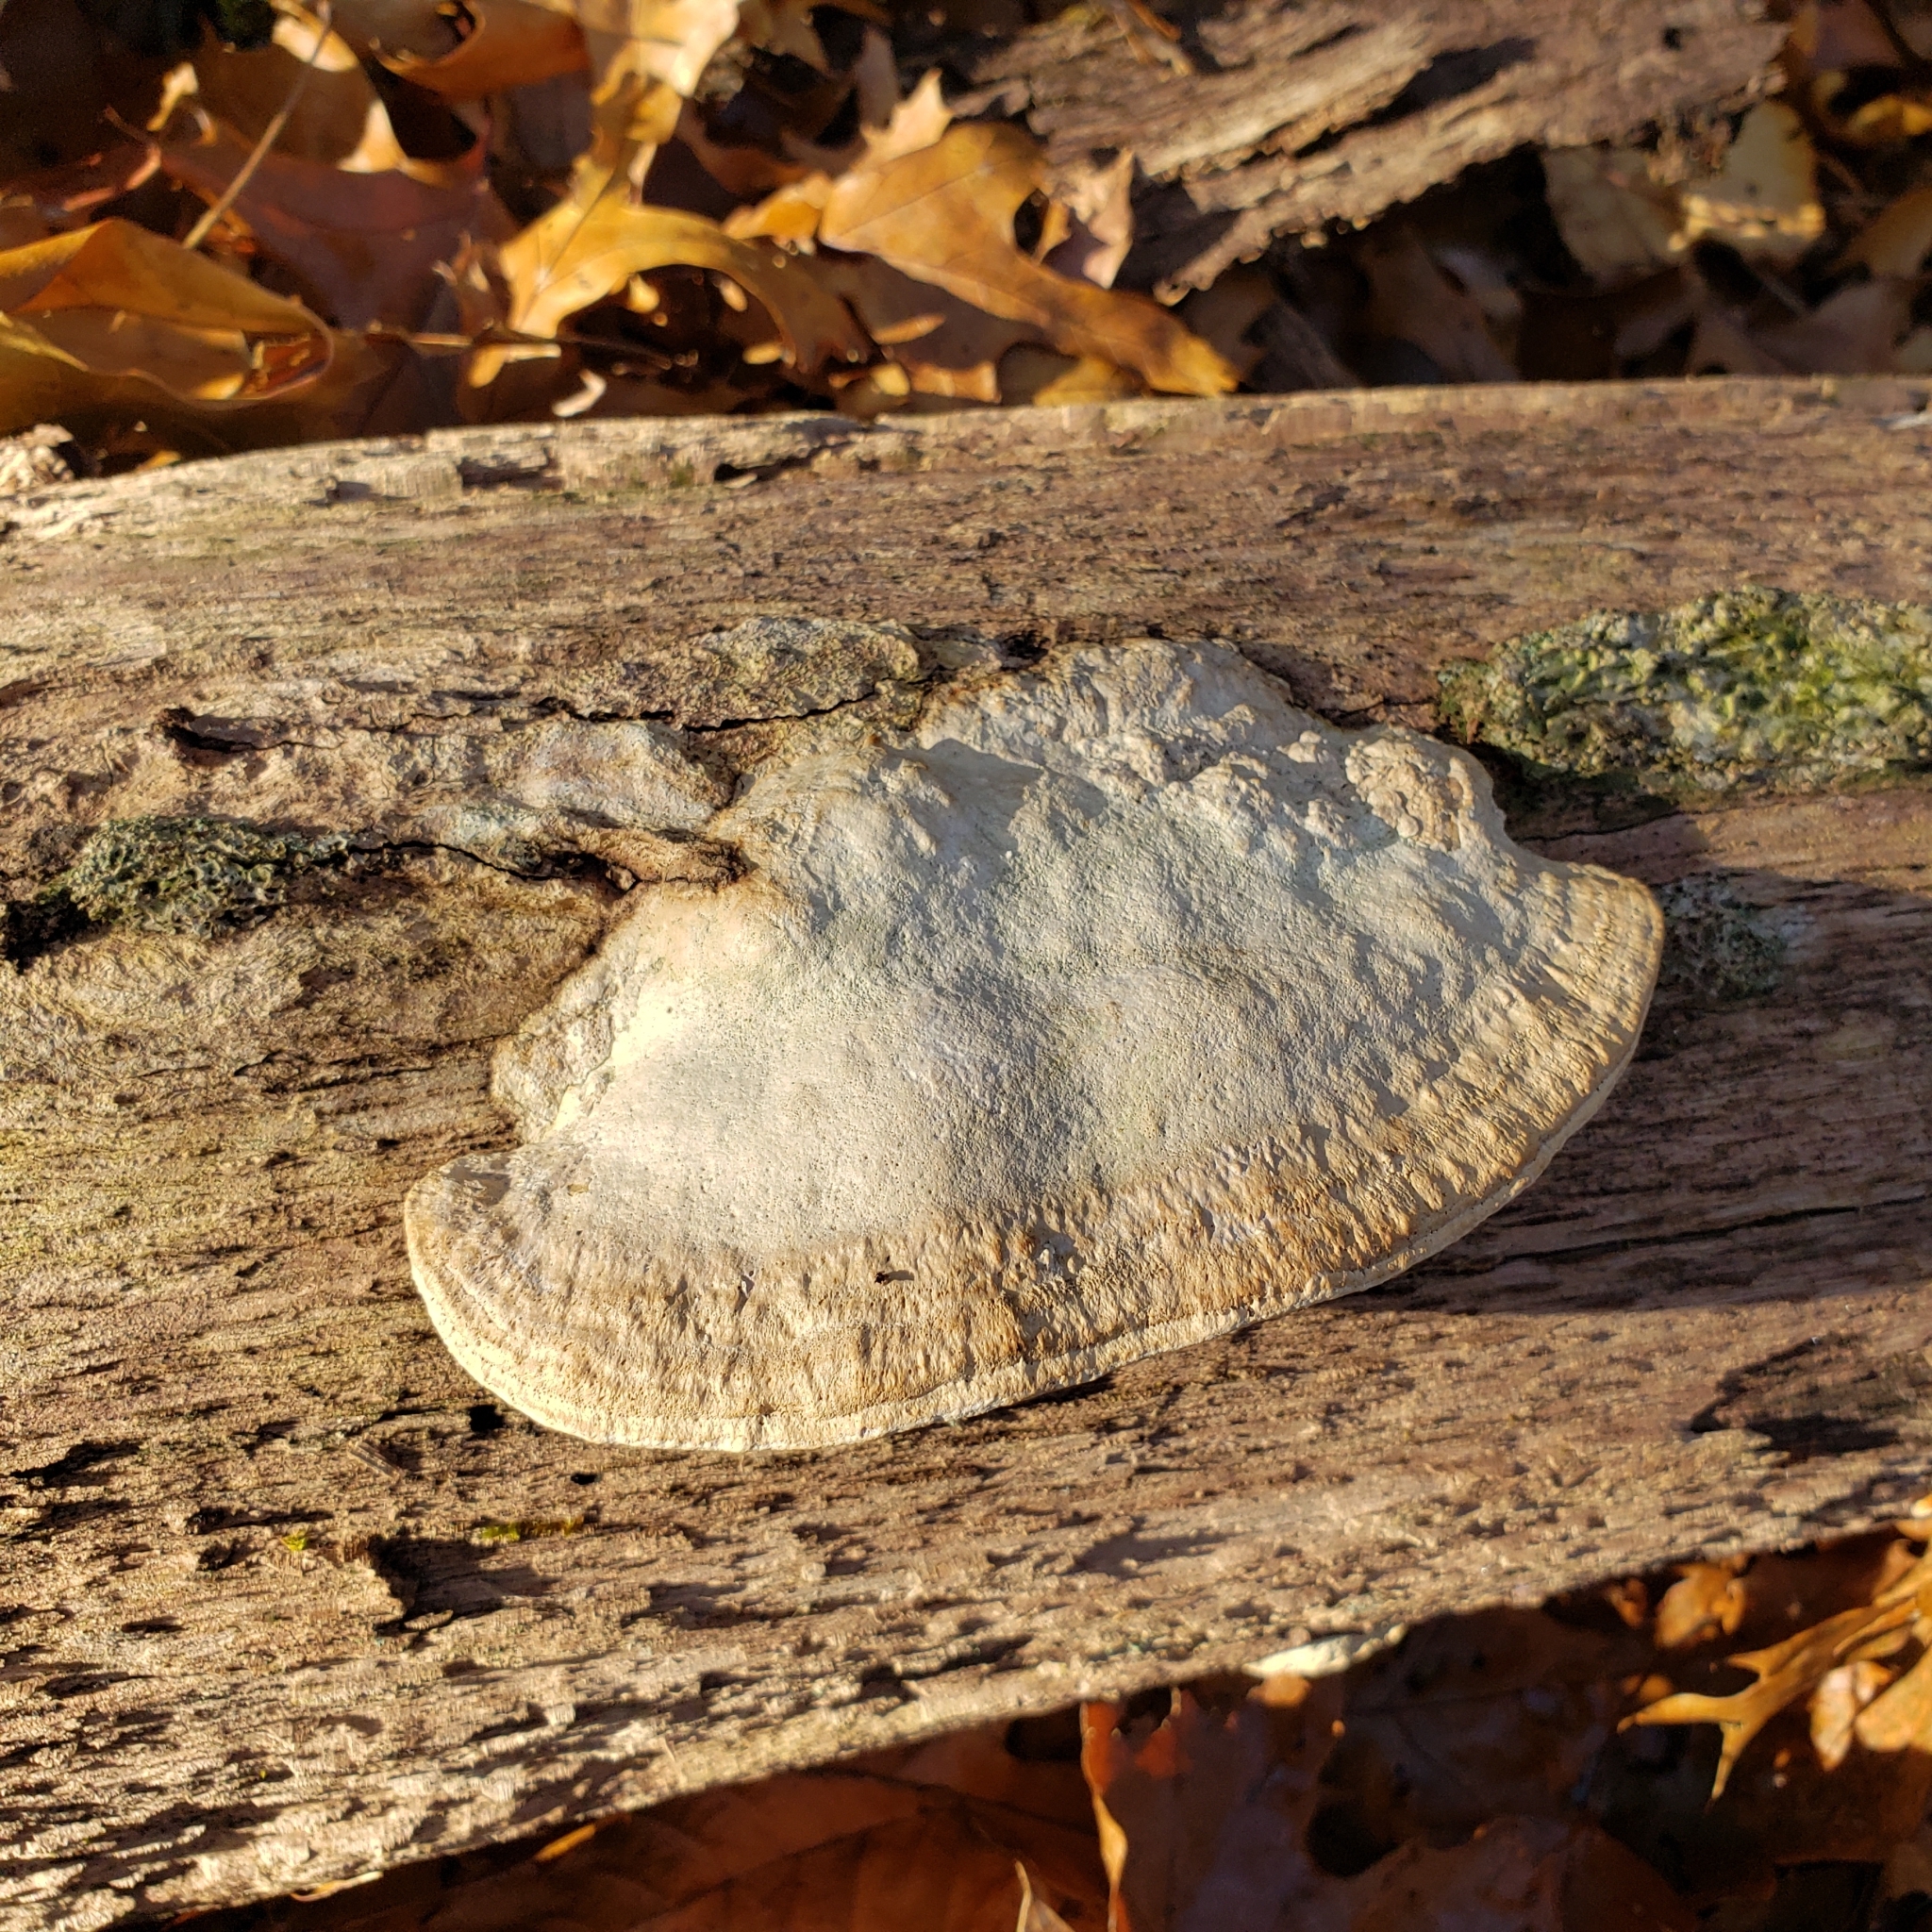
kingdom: Fungi
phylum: Basidiomycota
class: Agaricomycetes
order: Polyporales
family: Fomitopsidaceae
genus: Fomitopsis
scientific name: Fomitopsis
